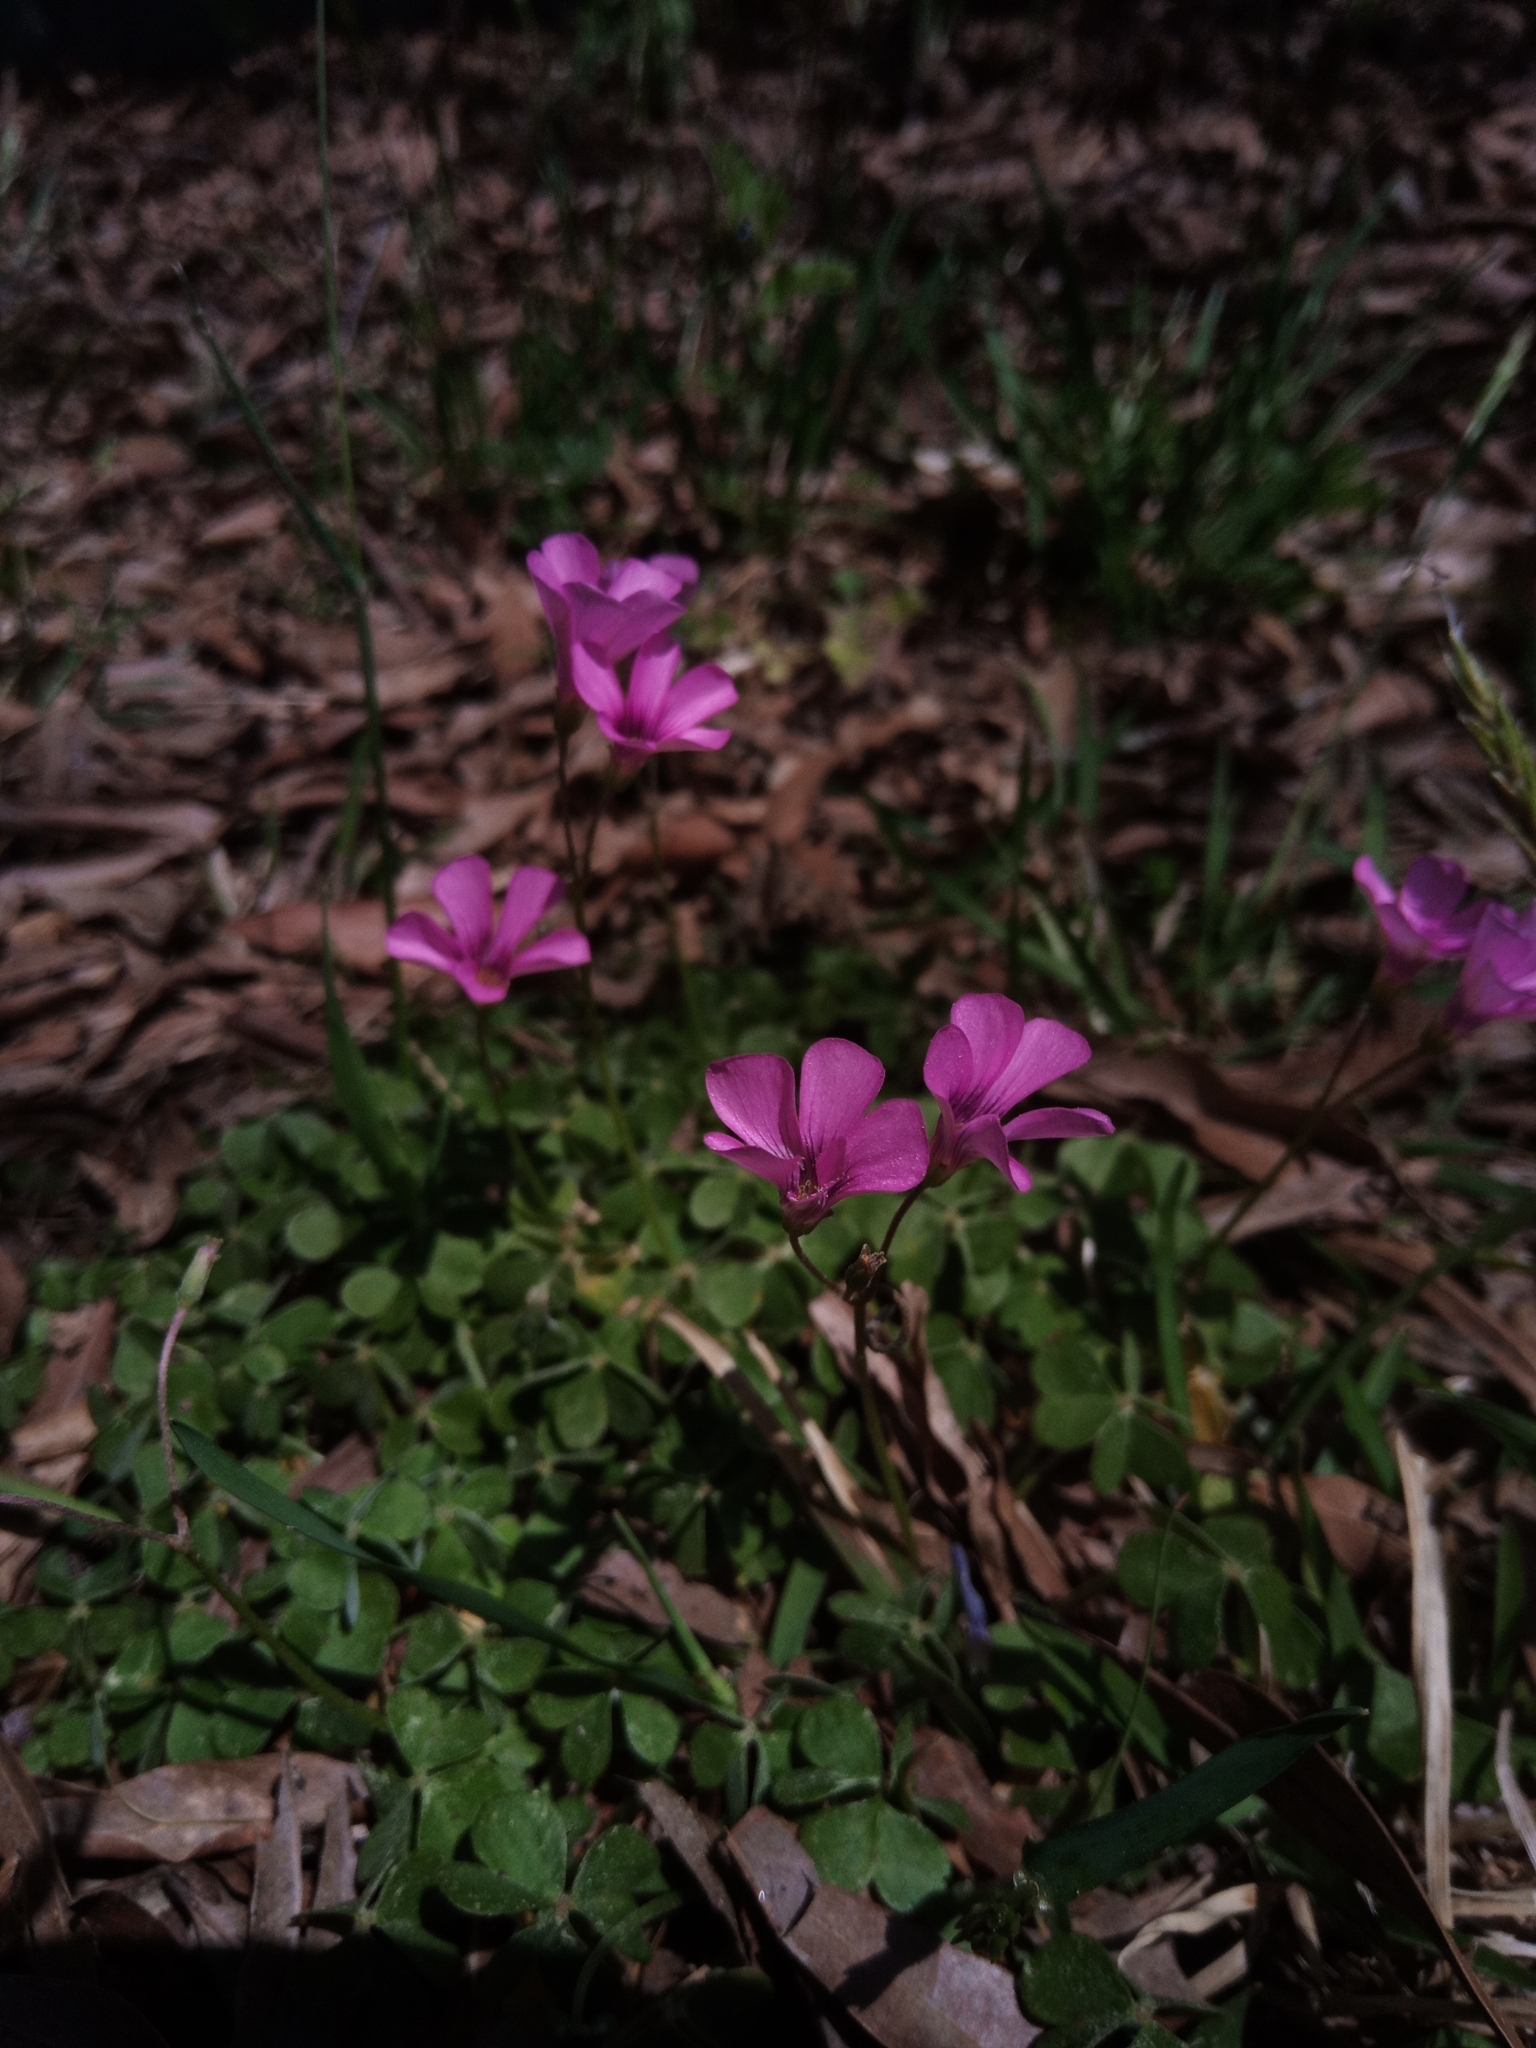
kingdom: Plantae
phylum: Tracheophyta
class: Magnoliopsida
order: Oxalidales
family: Oxalidaceae
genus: Oxalis
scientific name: Oxalis articulata
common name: Pink-sorrel
